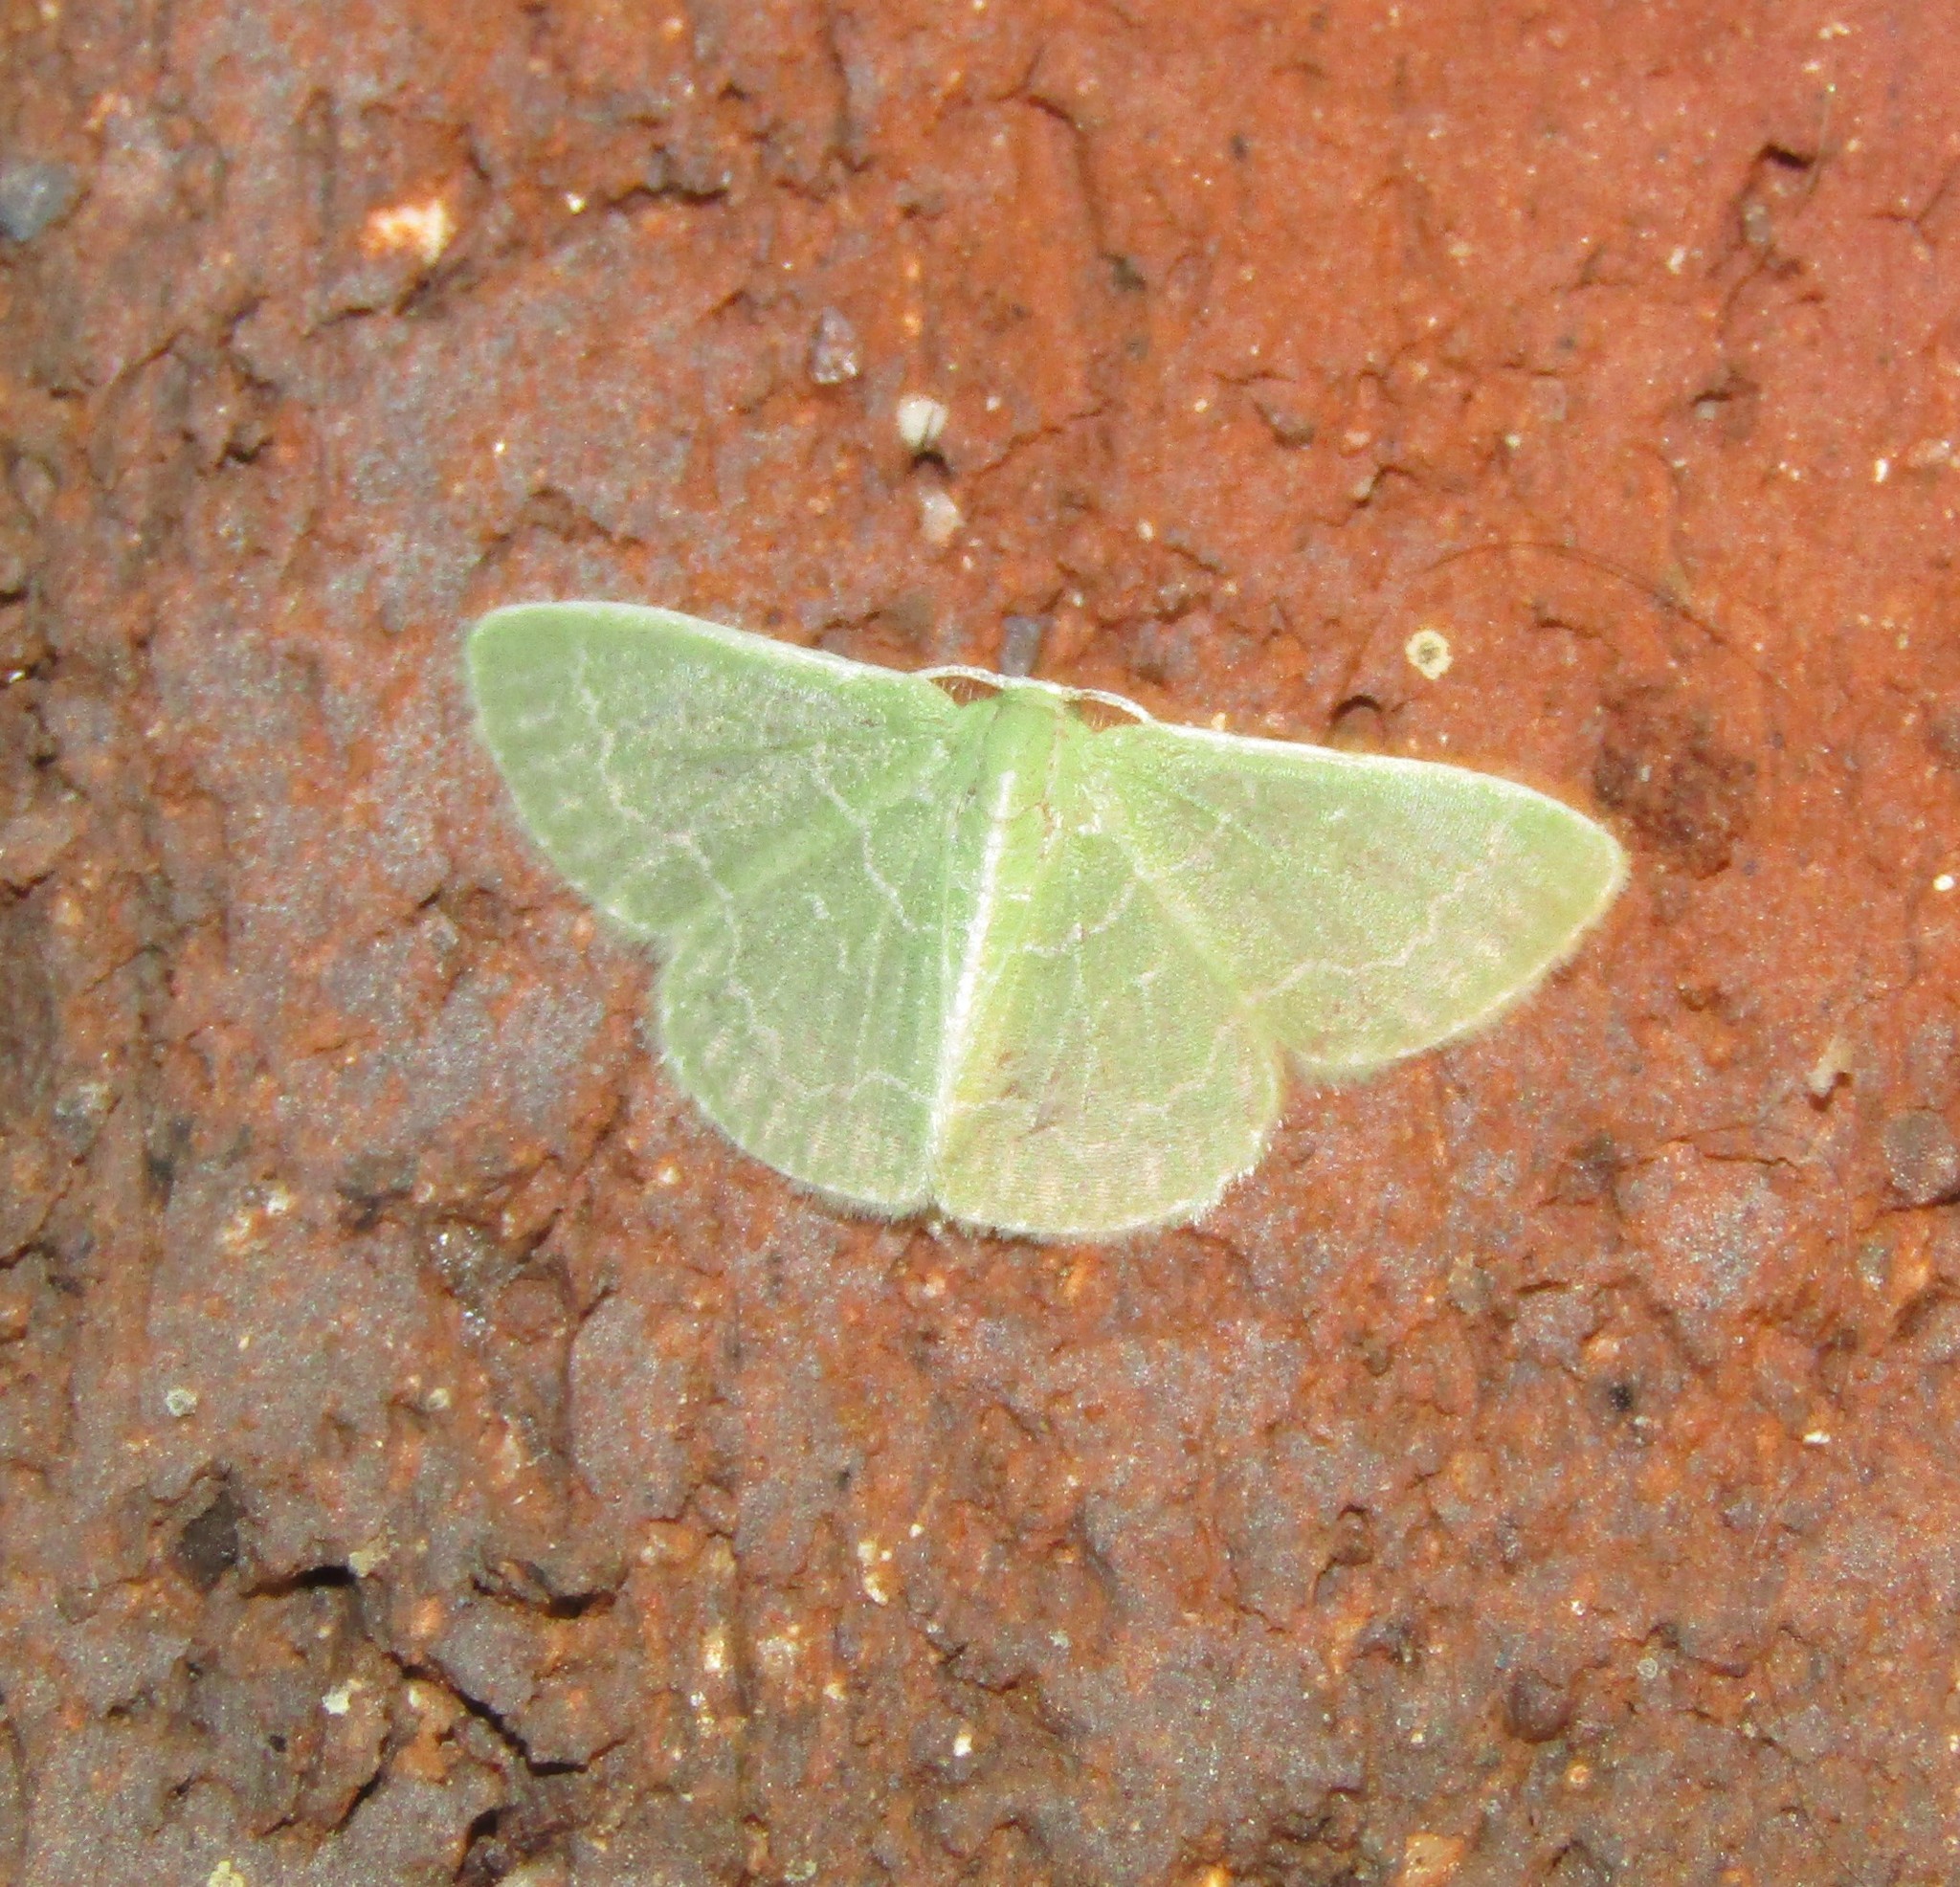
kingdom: Animalia
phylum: Arthropoda
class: Insecta
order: Lepidoptera
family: Geometridae
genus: Synchlora
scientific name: Synchlora frondaria
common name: Southern emerald
